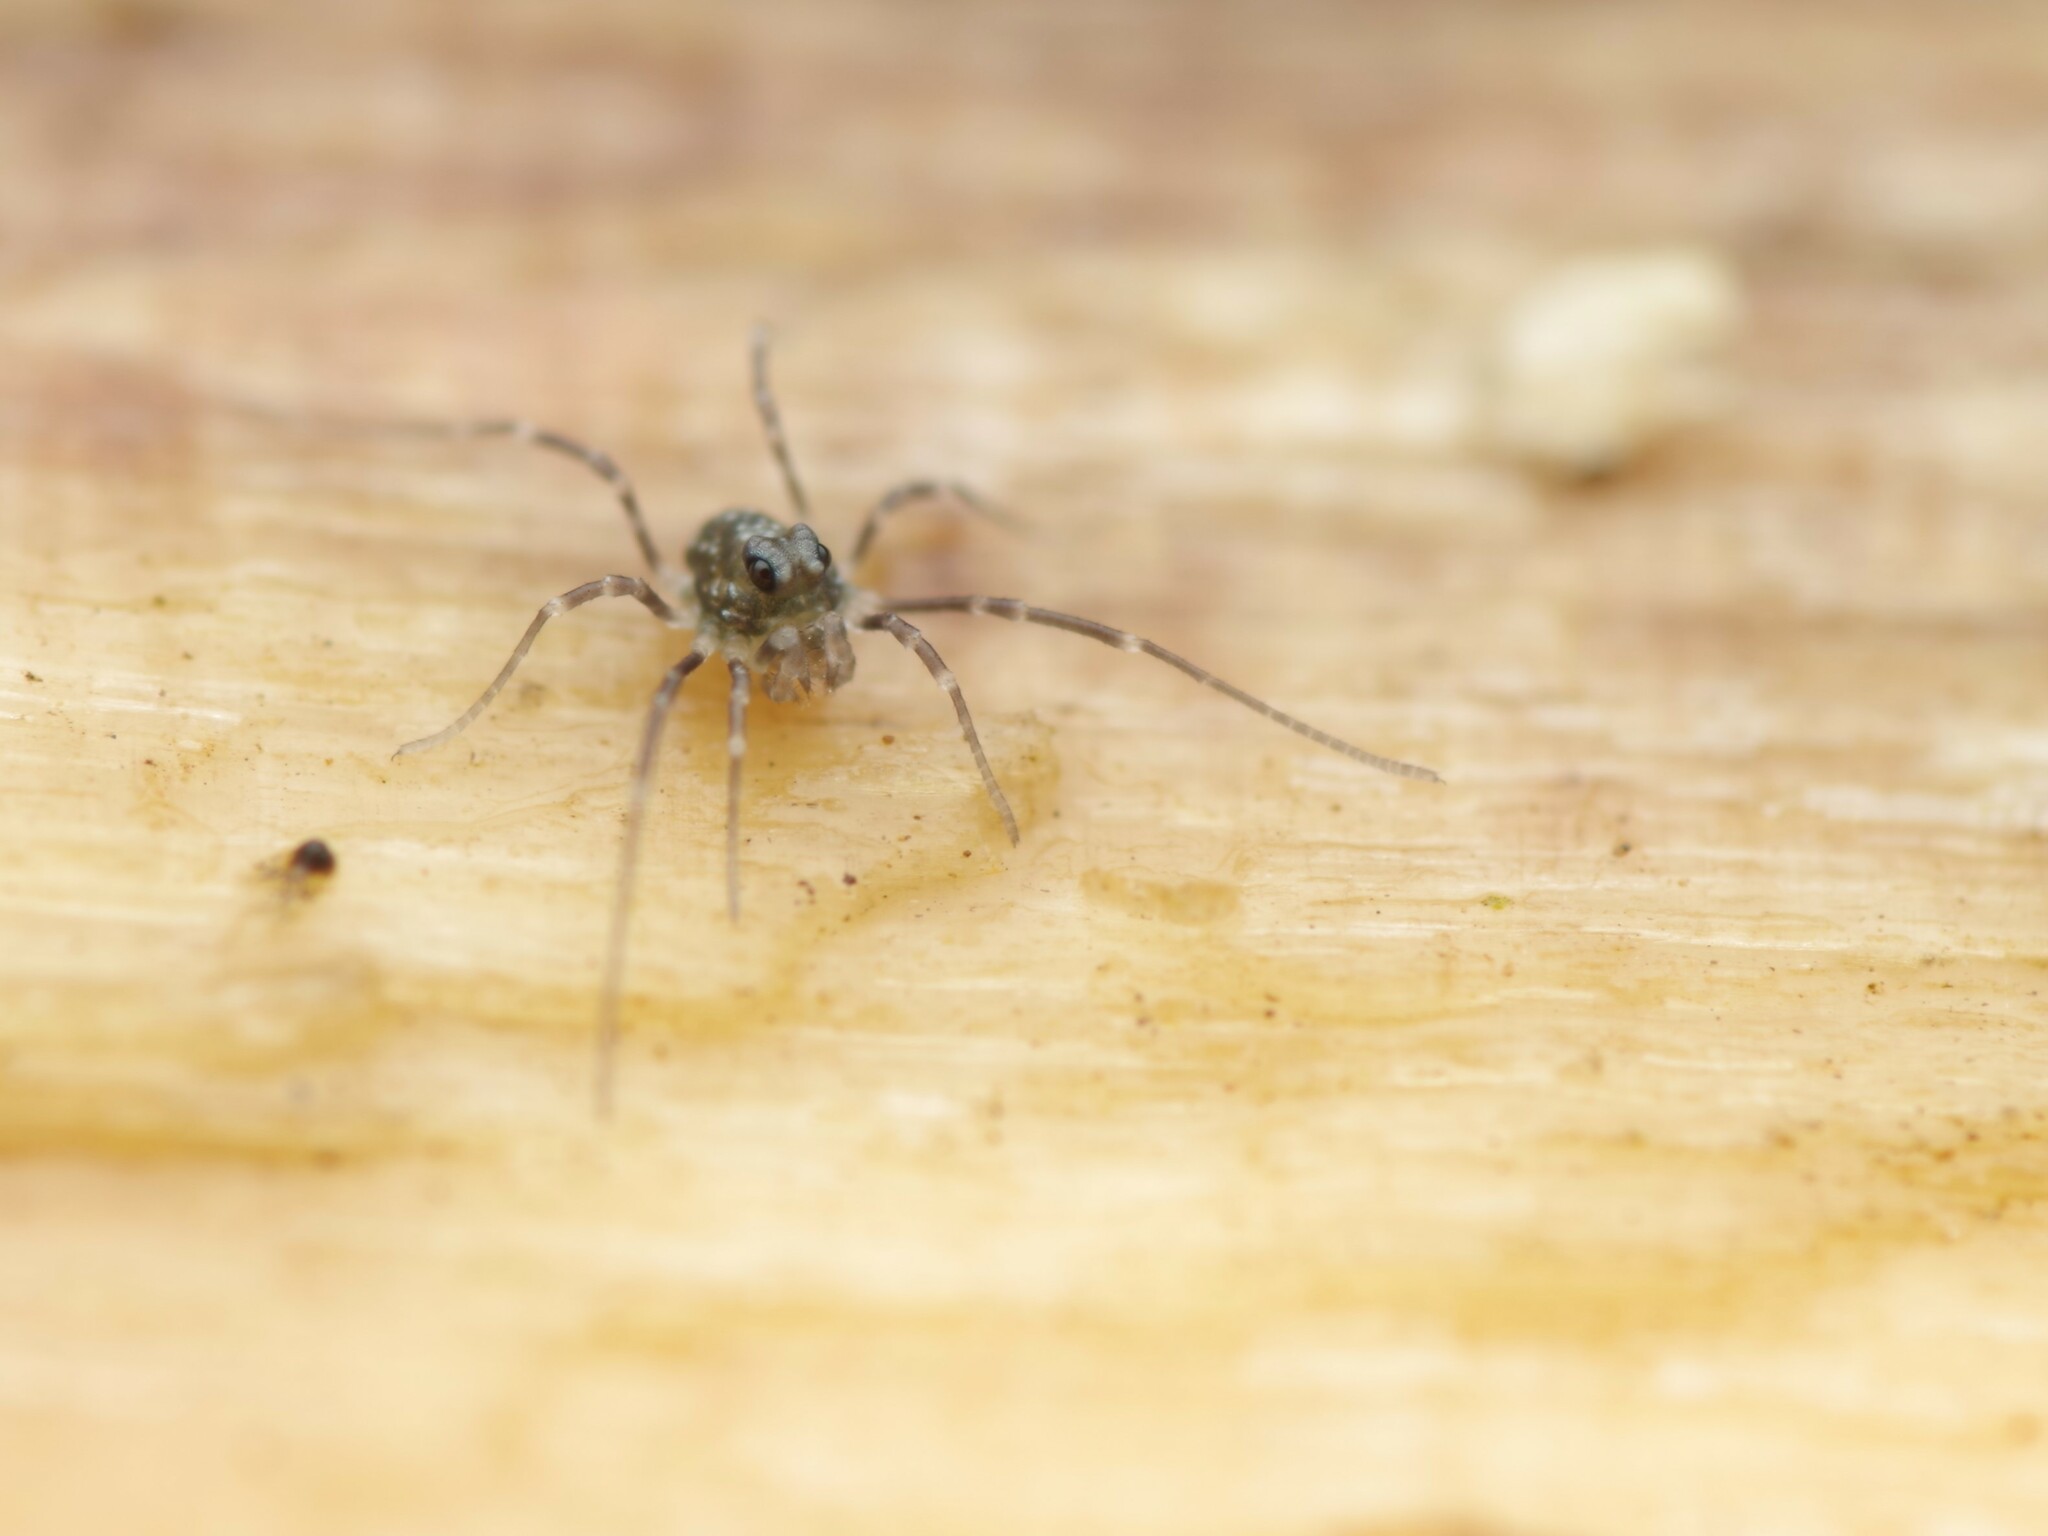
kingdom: Animalia
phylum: Arthropoda
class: Arachnida
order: Opiliones
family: Phalangiidae
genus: Rilaena
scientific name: Rilaena triangularis
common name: Spring harvestman
